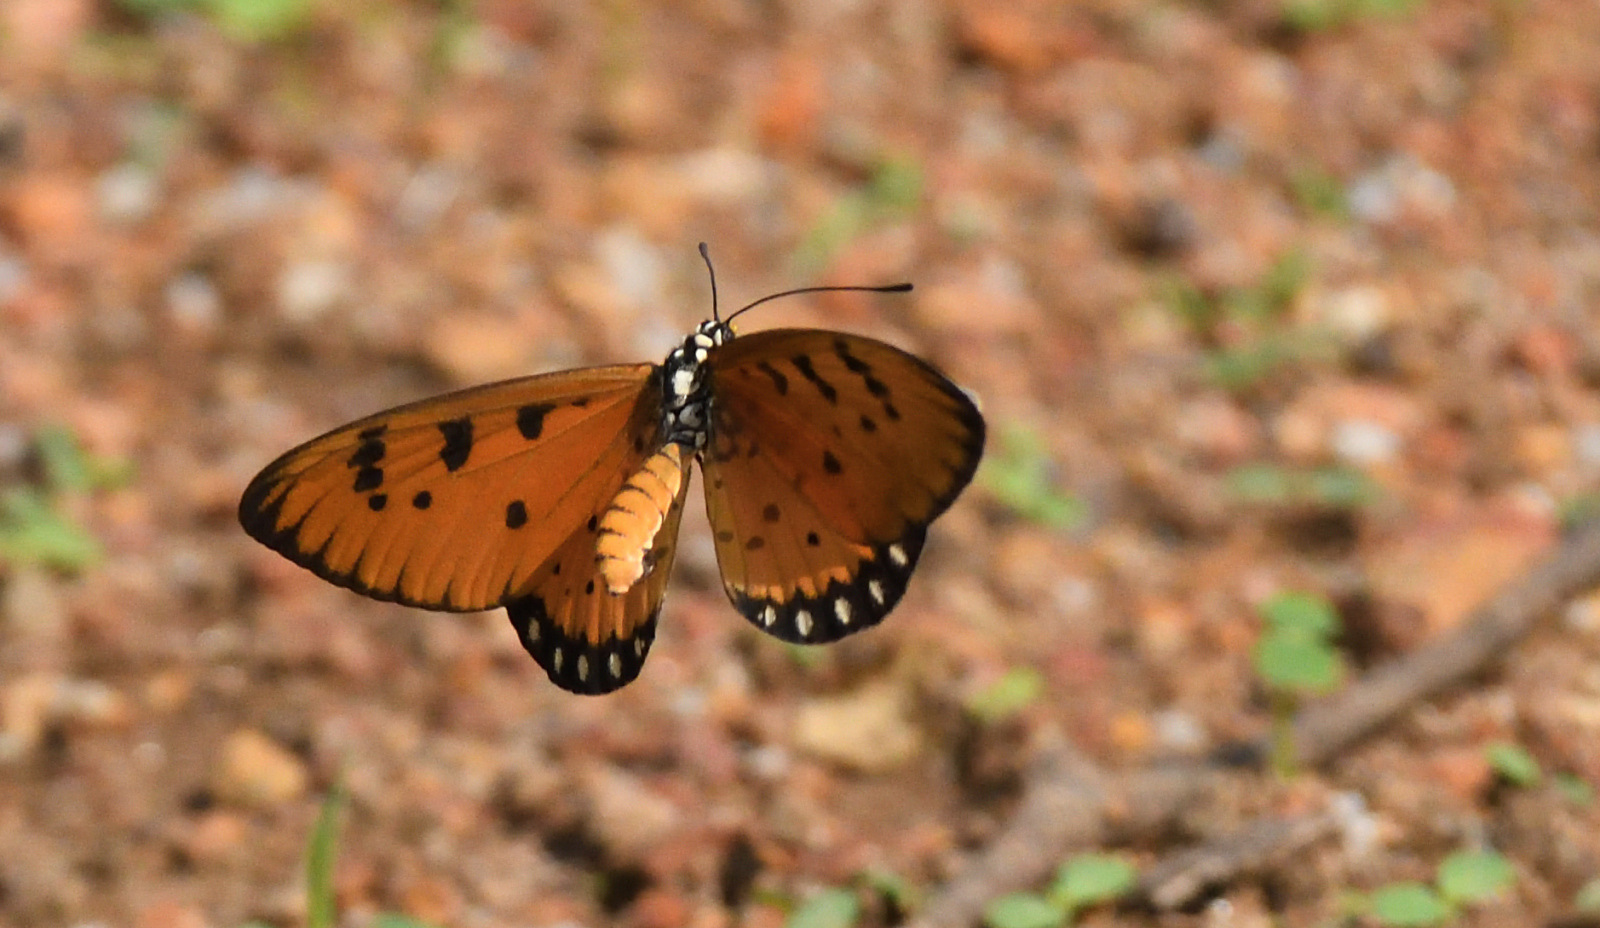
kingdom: Animalia
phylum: Arthropoda
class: Insecta
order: Lepidoptera
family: Nymphalidae
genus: Acraea
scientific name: Acraea terpsicore
